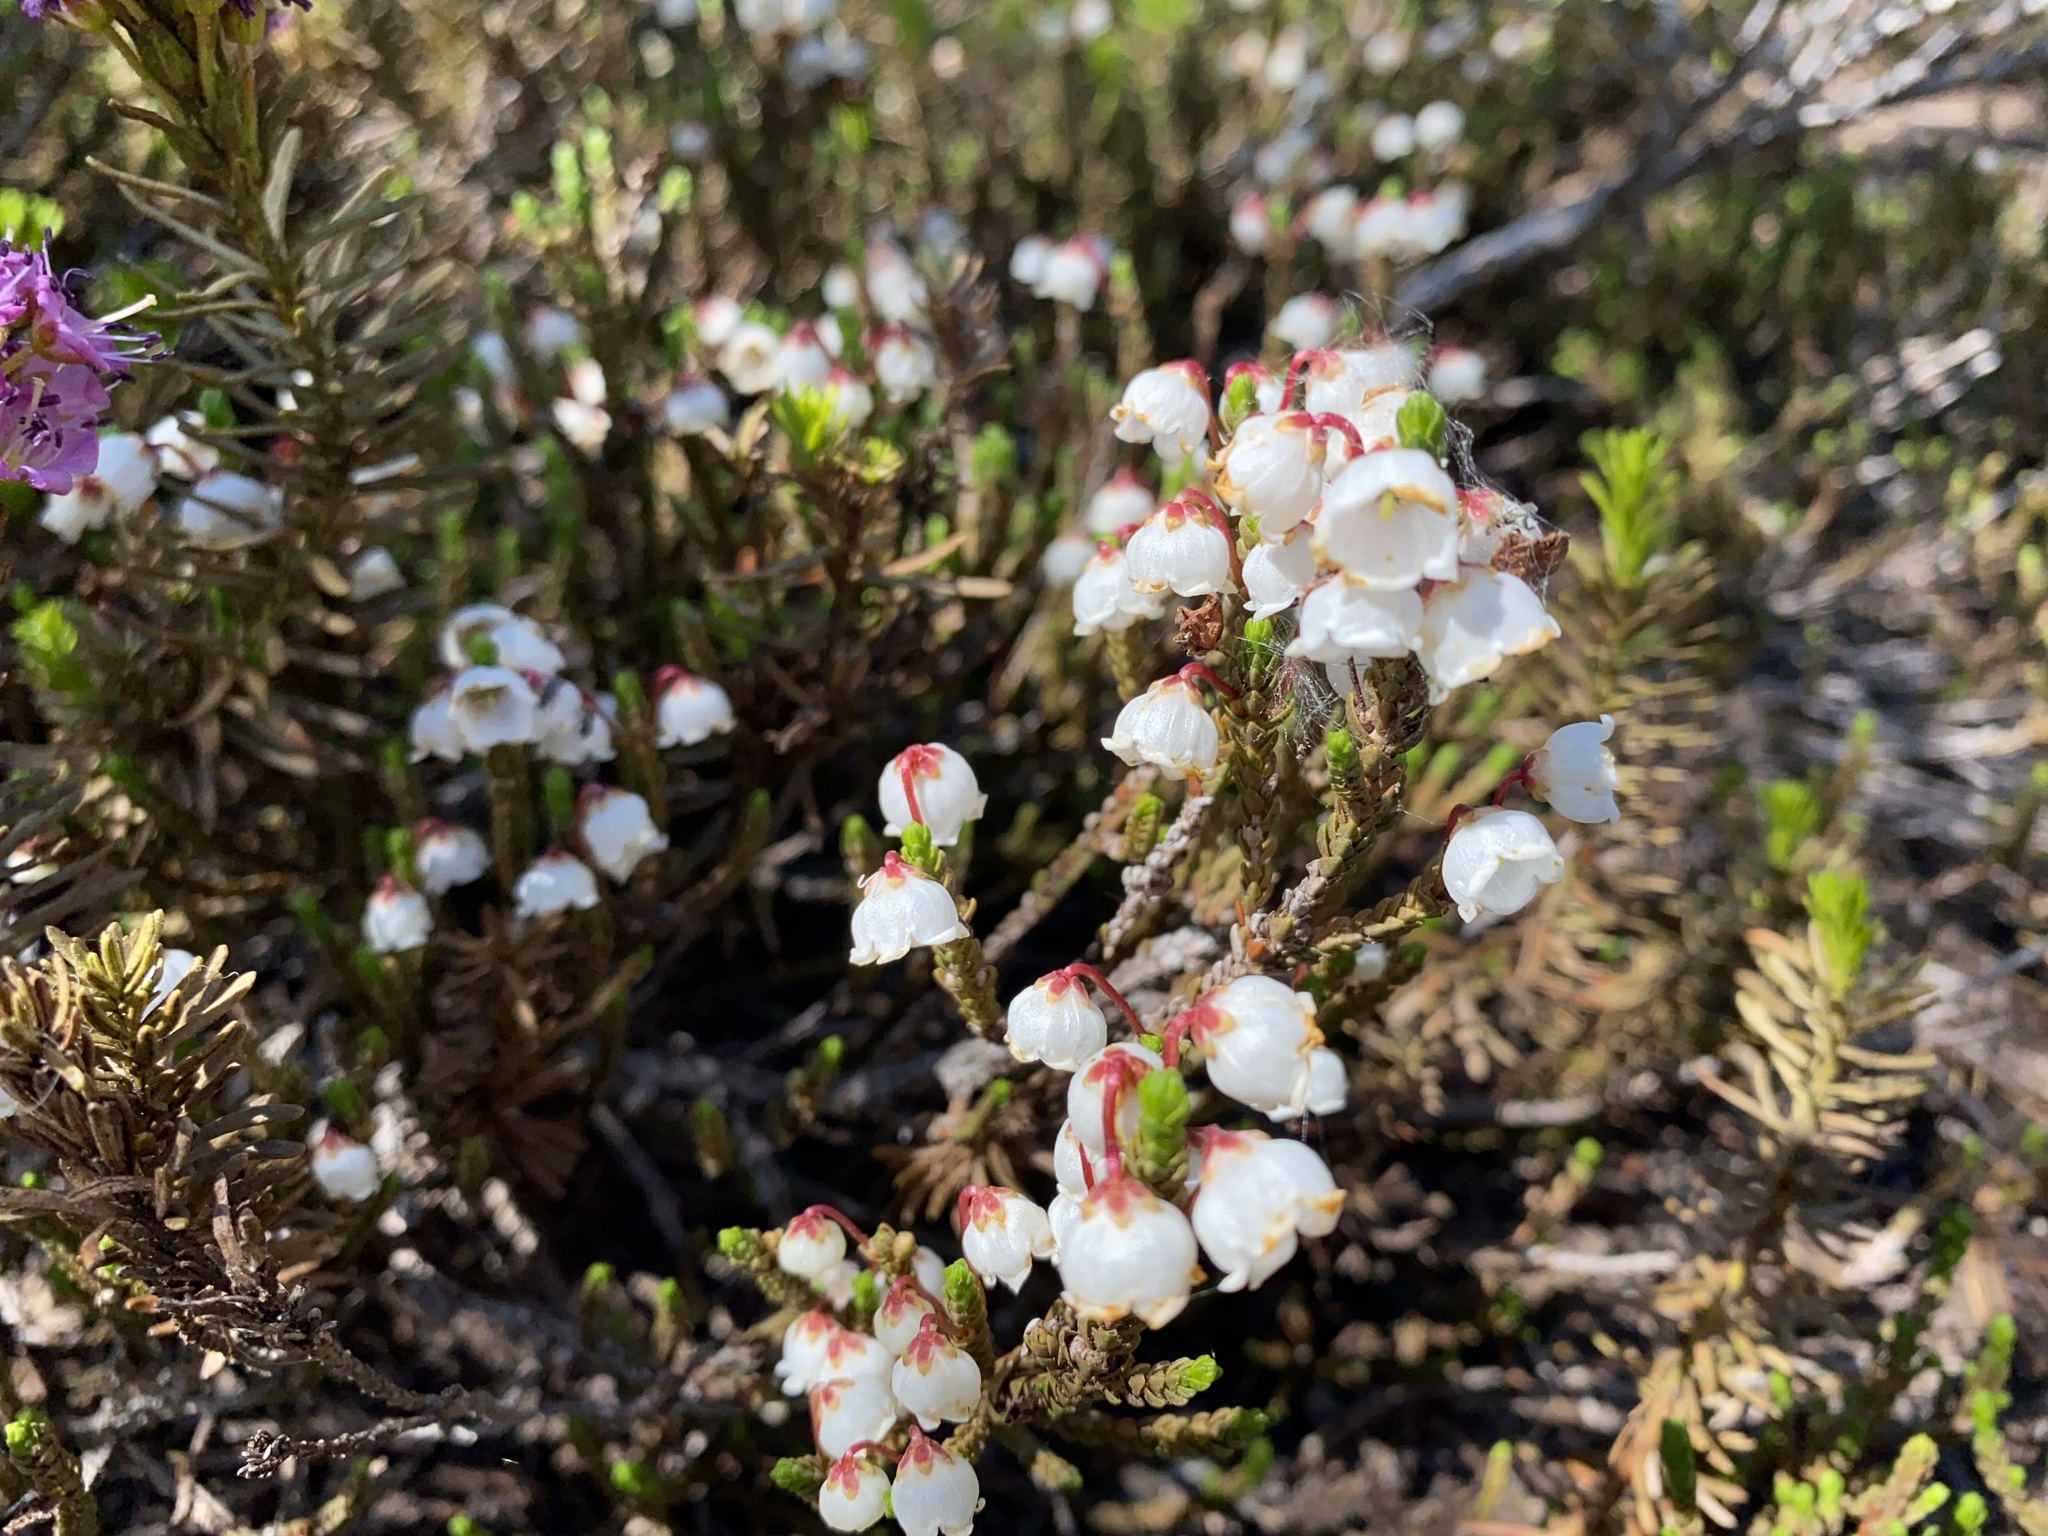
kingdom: Plantae
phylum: Tracheophyta
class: Magnoliopsida
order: Ericales
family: Ericaceae
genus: Cassiope
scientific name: Cassiope mertensiana
